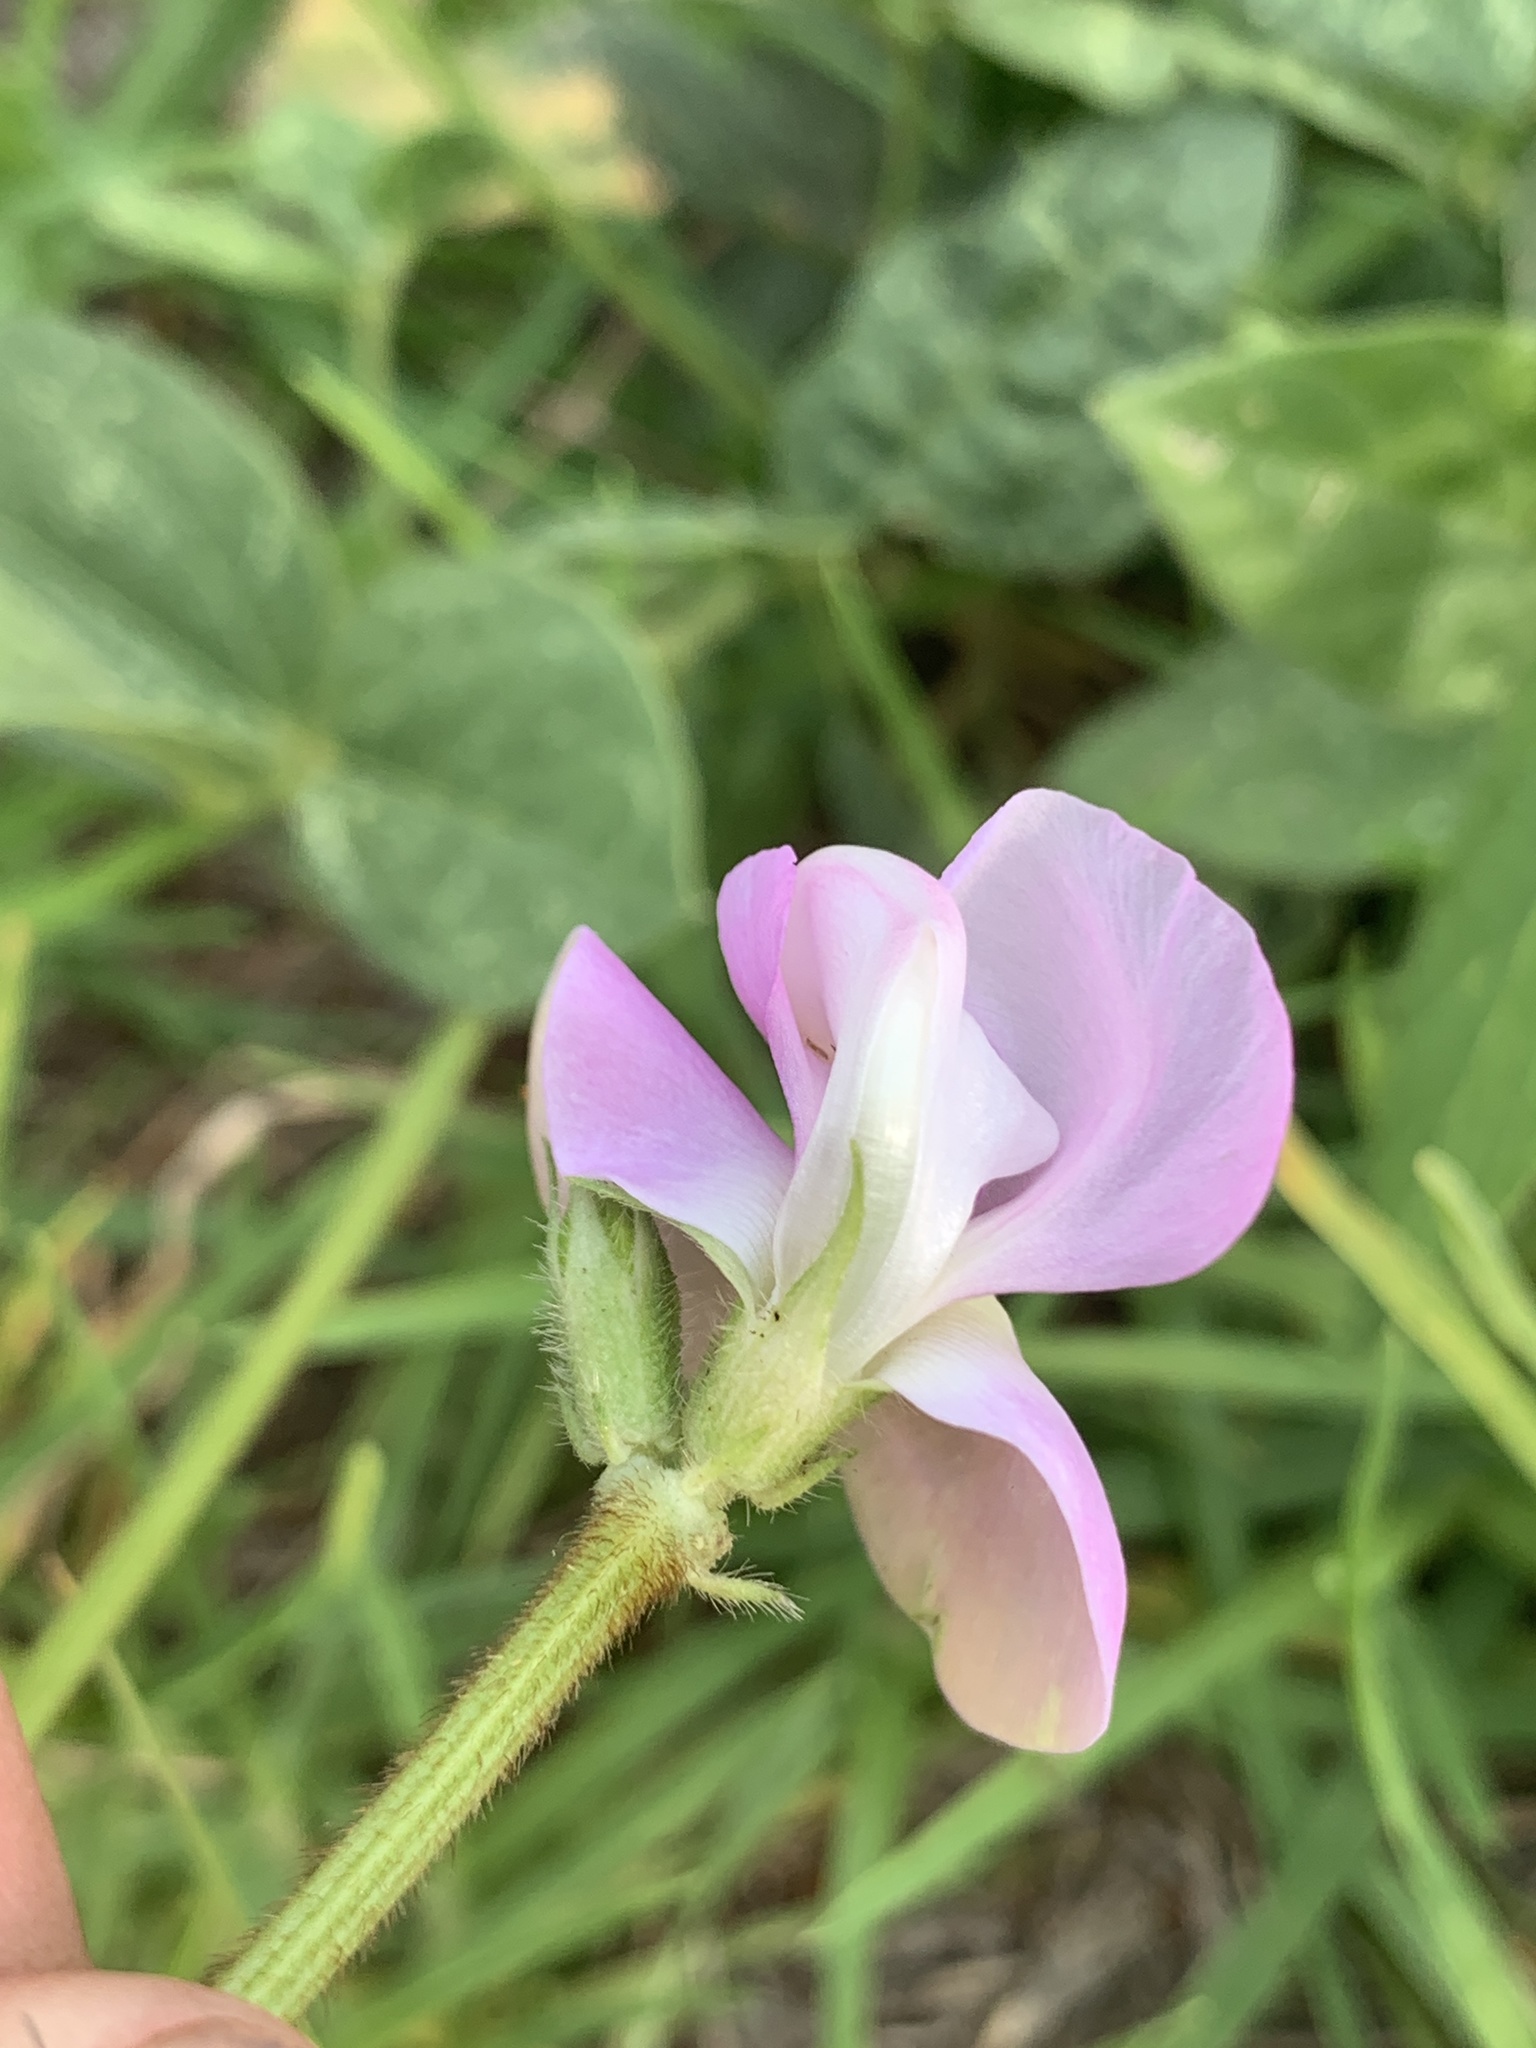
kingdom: Plantae
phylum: Tracheophyta
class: Magnoliopsida
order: Fabales
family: Fabaceae
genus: Vigna
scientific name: Vigna vexillata
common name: Zombi pea
